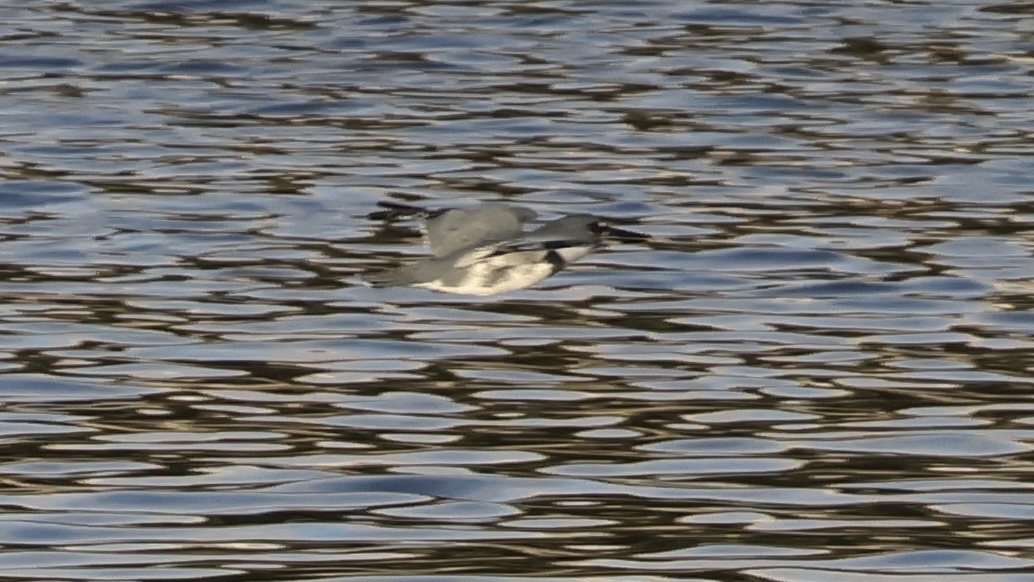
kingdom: Animalia
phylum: Chordata
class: Aves
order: Coraciiformes
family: Alcedinidae
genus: Megaceryle
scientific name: Megaceryle alcyon
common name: Belted kingfisher
